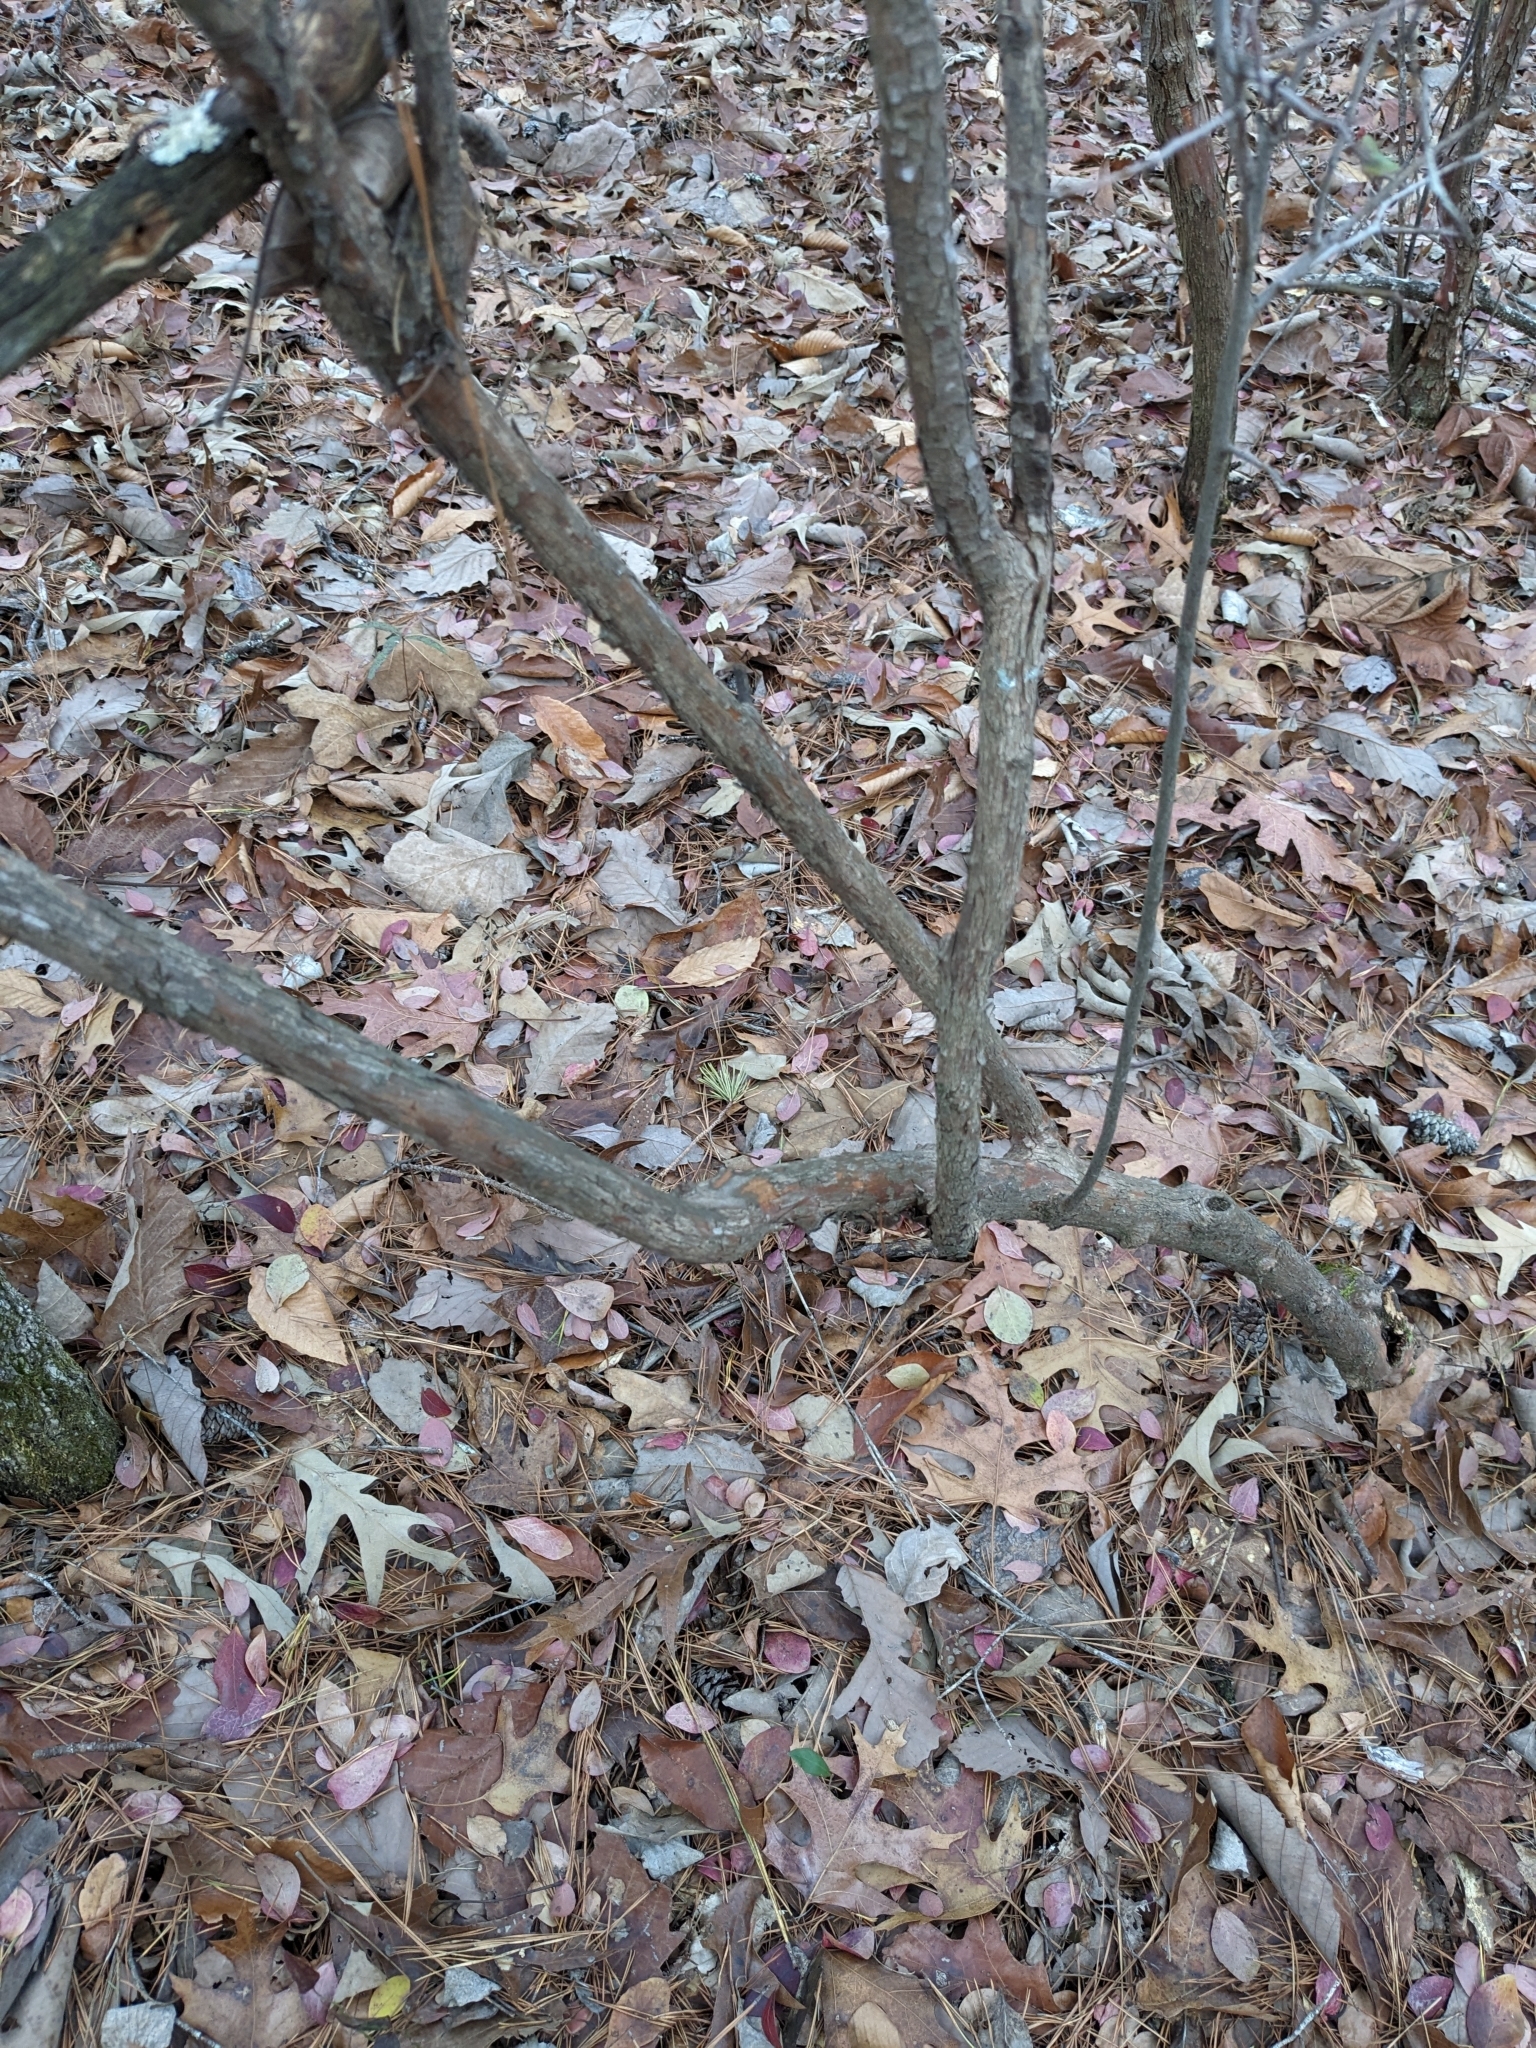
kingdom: Plantae
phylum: Tracheophyta
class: Magnoliopsida
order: Ericales
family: Ericaceae
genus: Vaccinium
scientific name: Vaccinium arboreum
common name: Farkleberry
